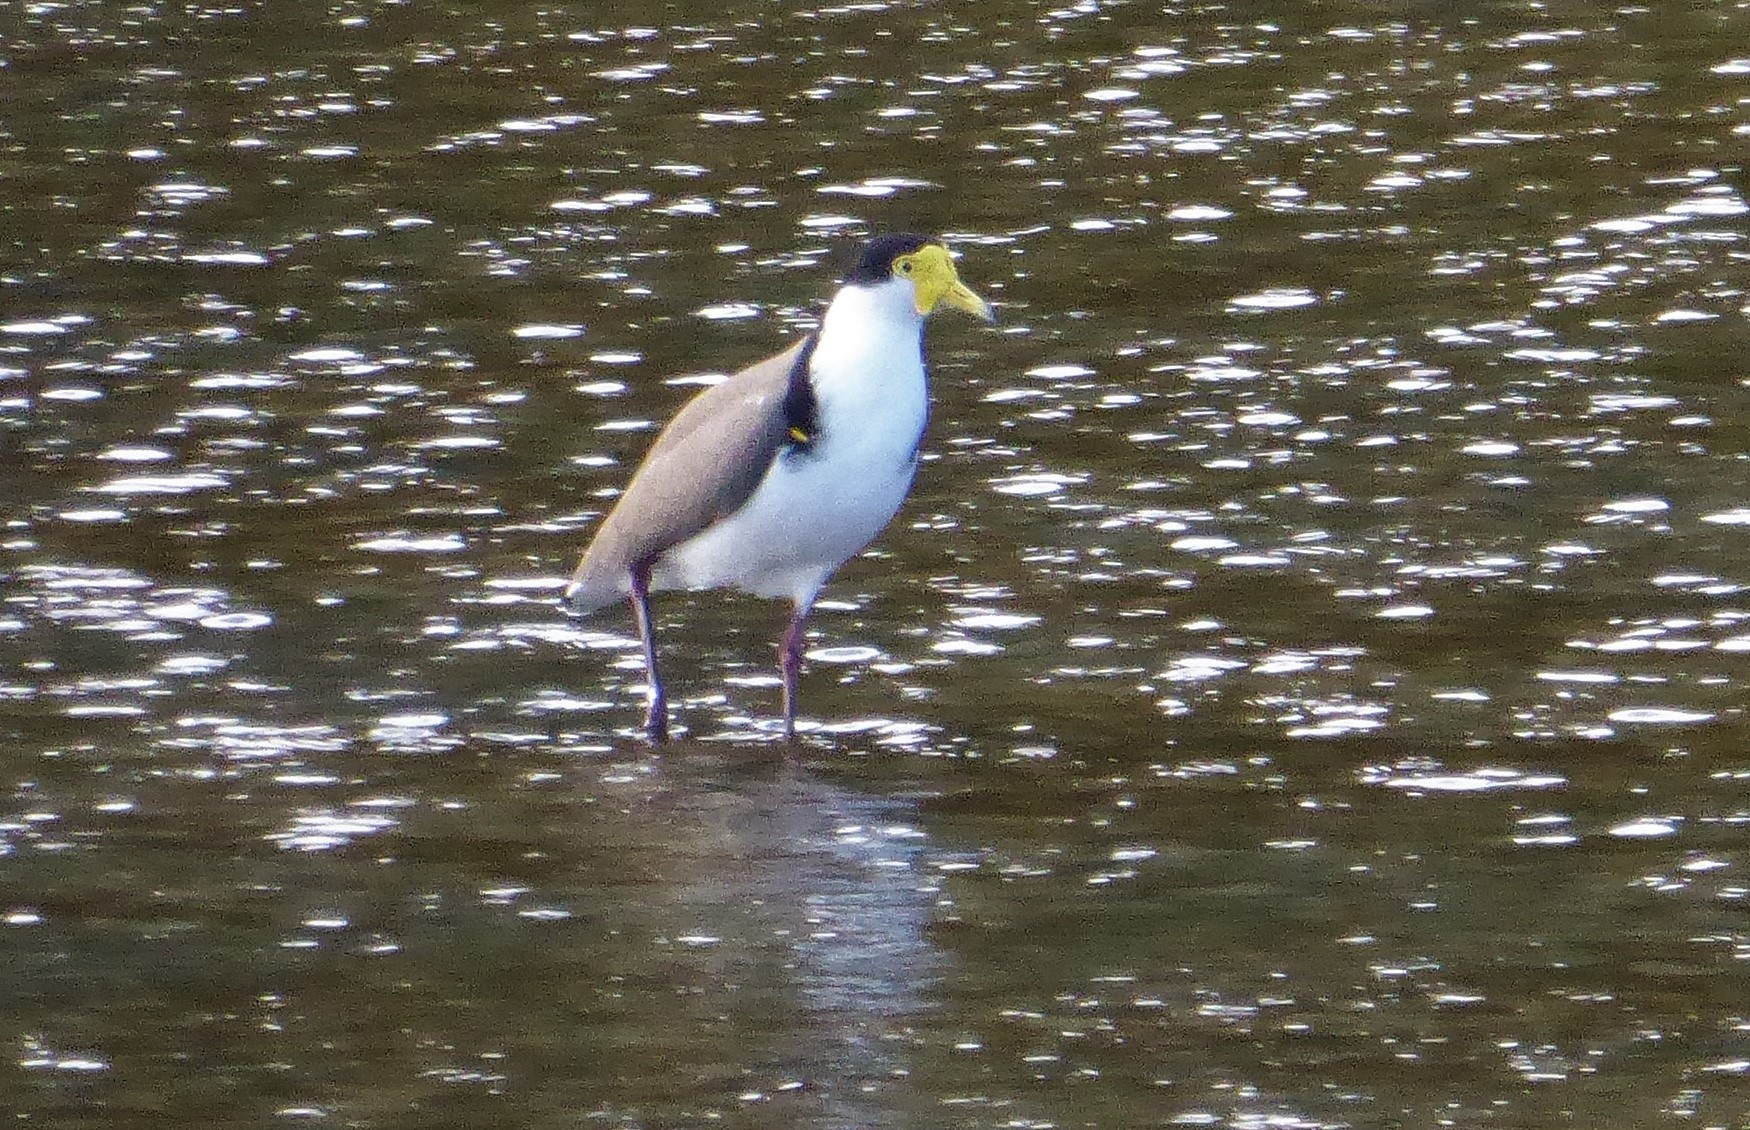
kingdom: Animalia
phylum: Chordata
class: Aves
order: Charadriiformes
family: Charadriidae
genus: Vanellus
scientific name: Vanellus miles
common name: Masked lapwing
